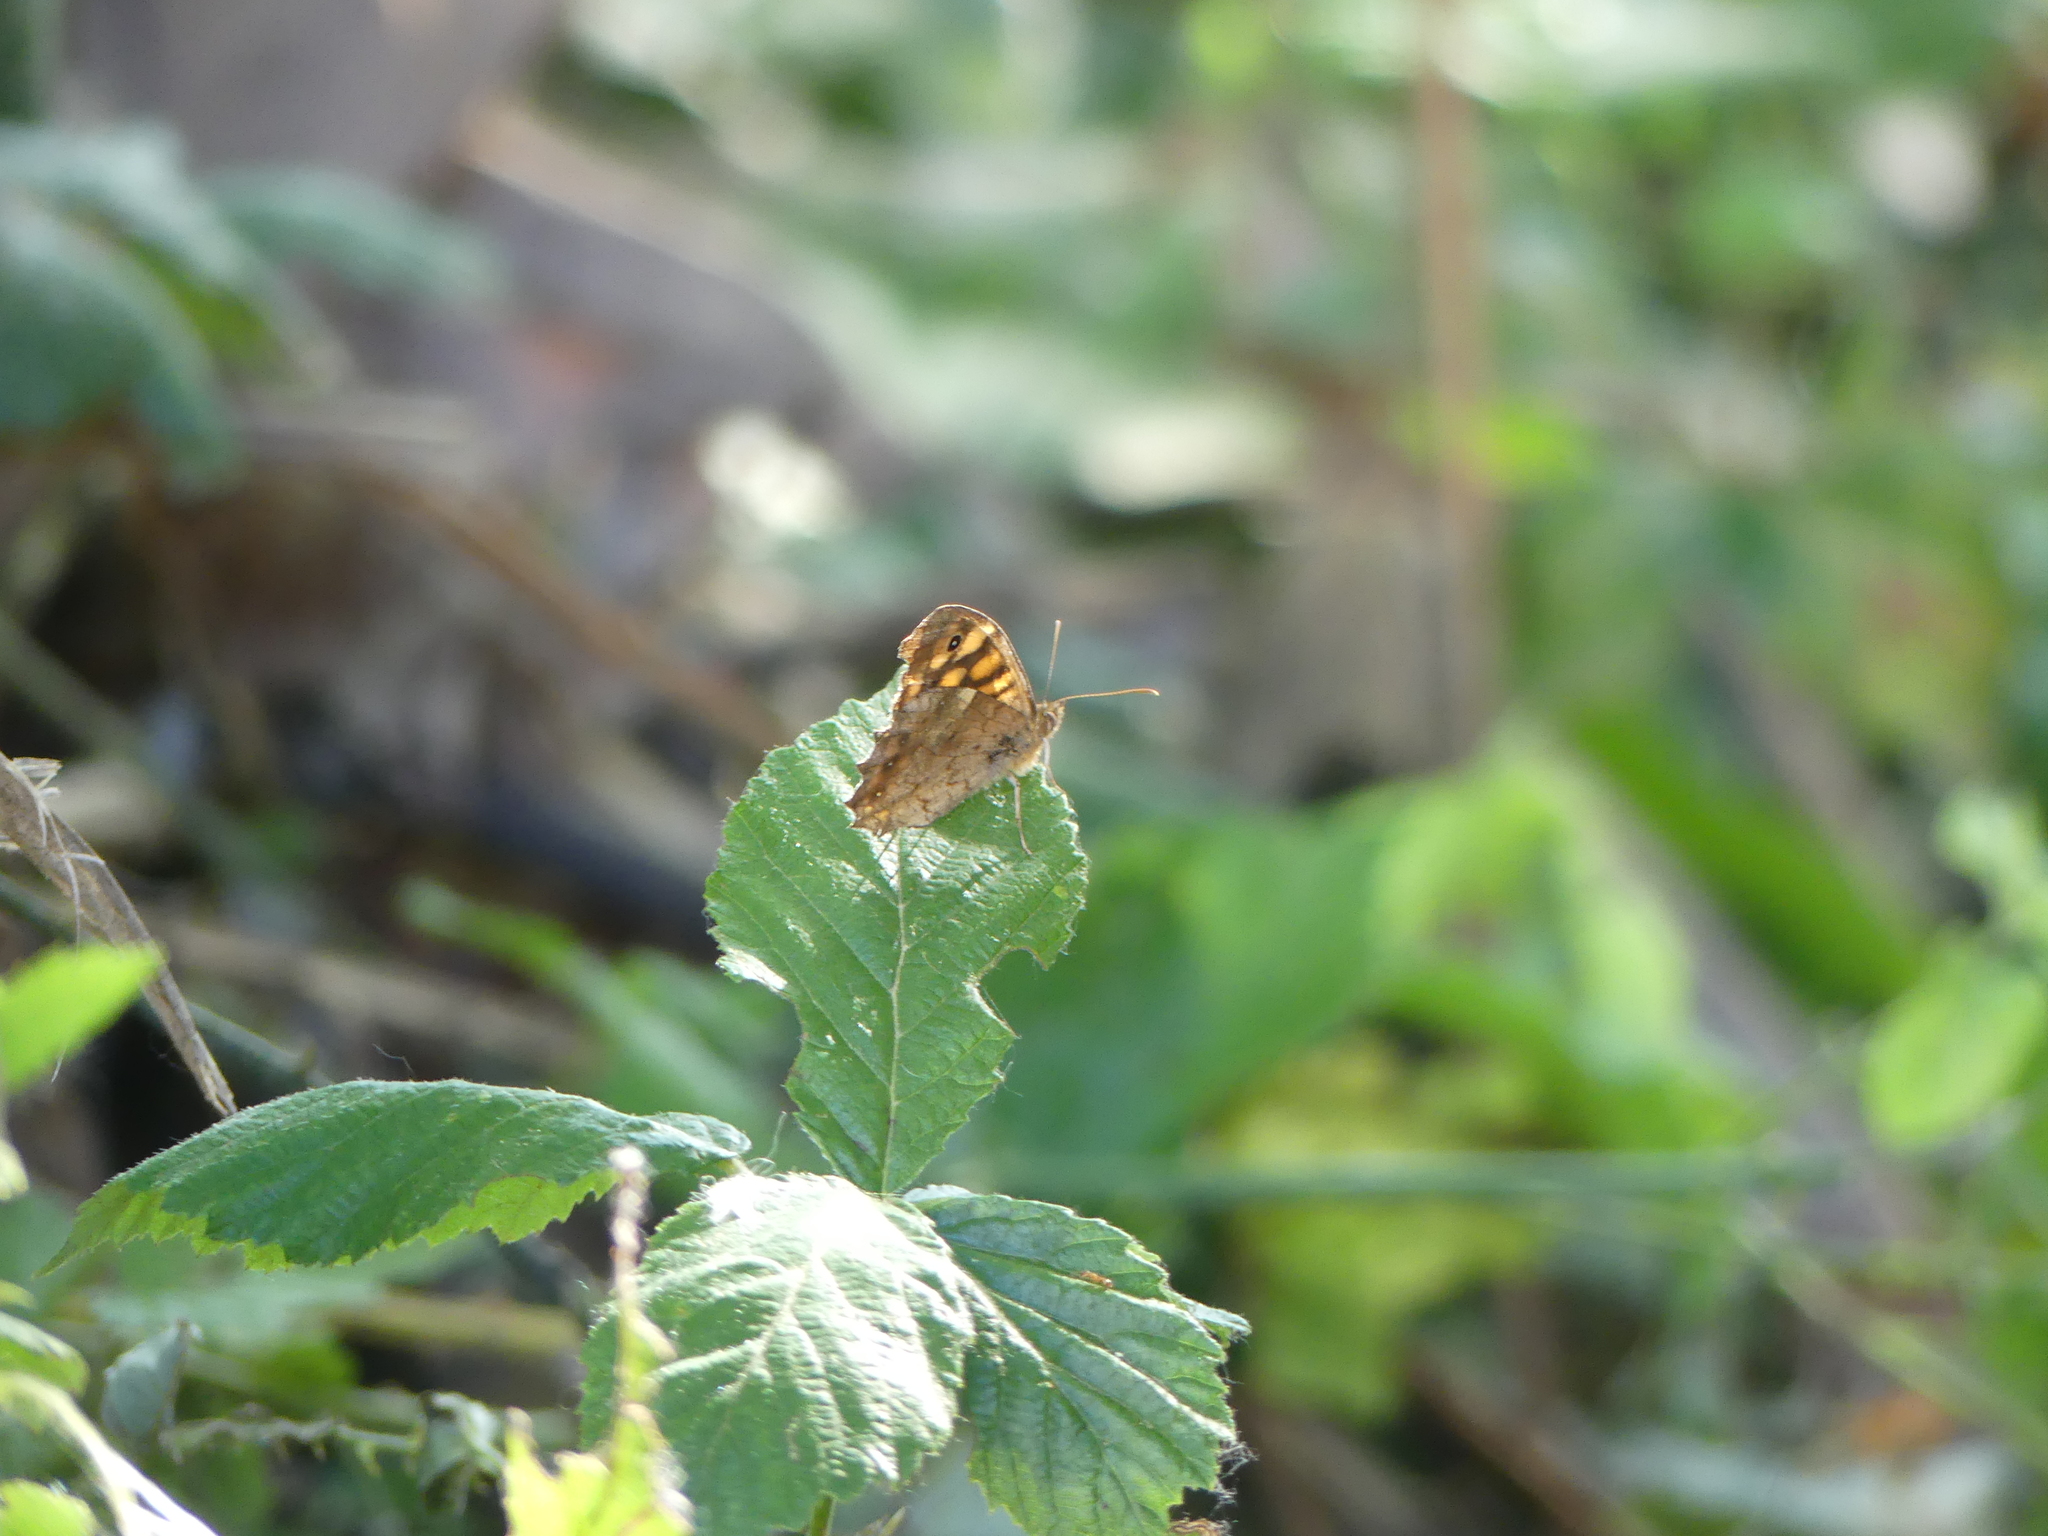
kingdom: Animalia
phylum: Arthropoda
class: Insecta
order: Lepidoptera
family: Nymphalidae
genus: Pararge
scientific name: Pararge aegeria
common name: Speckled wood
